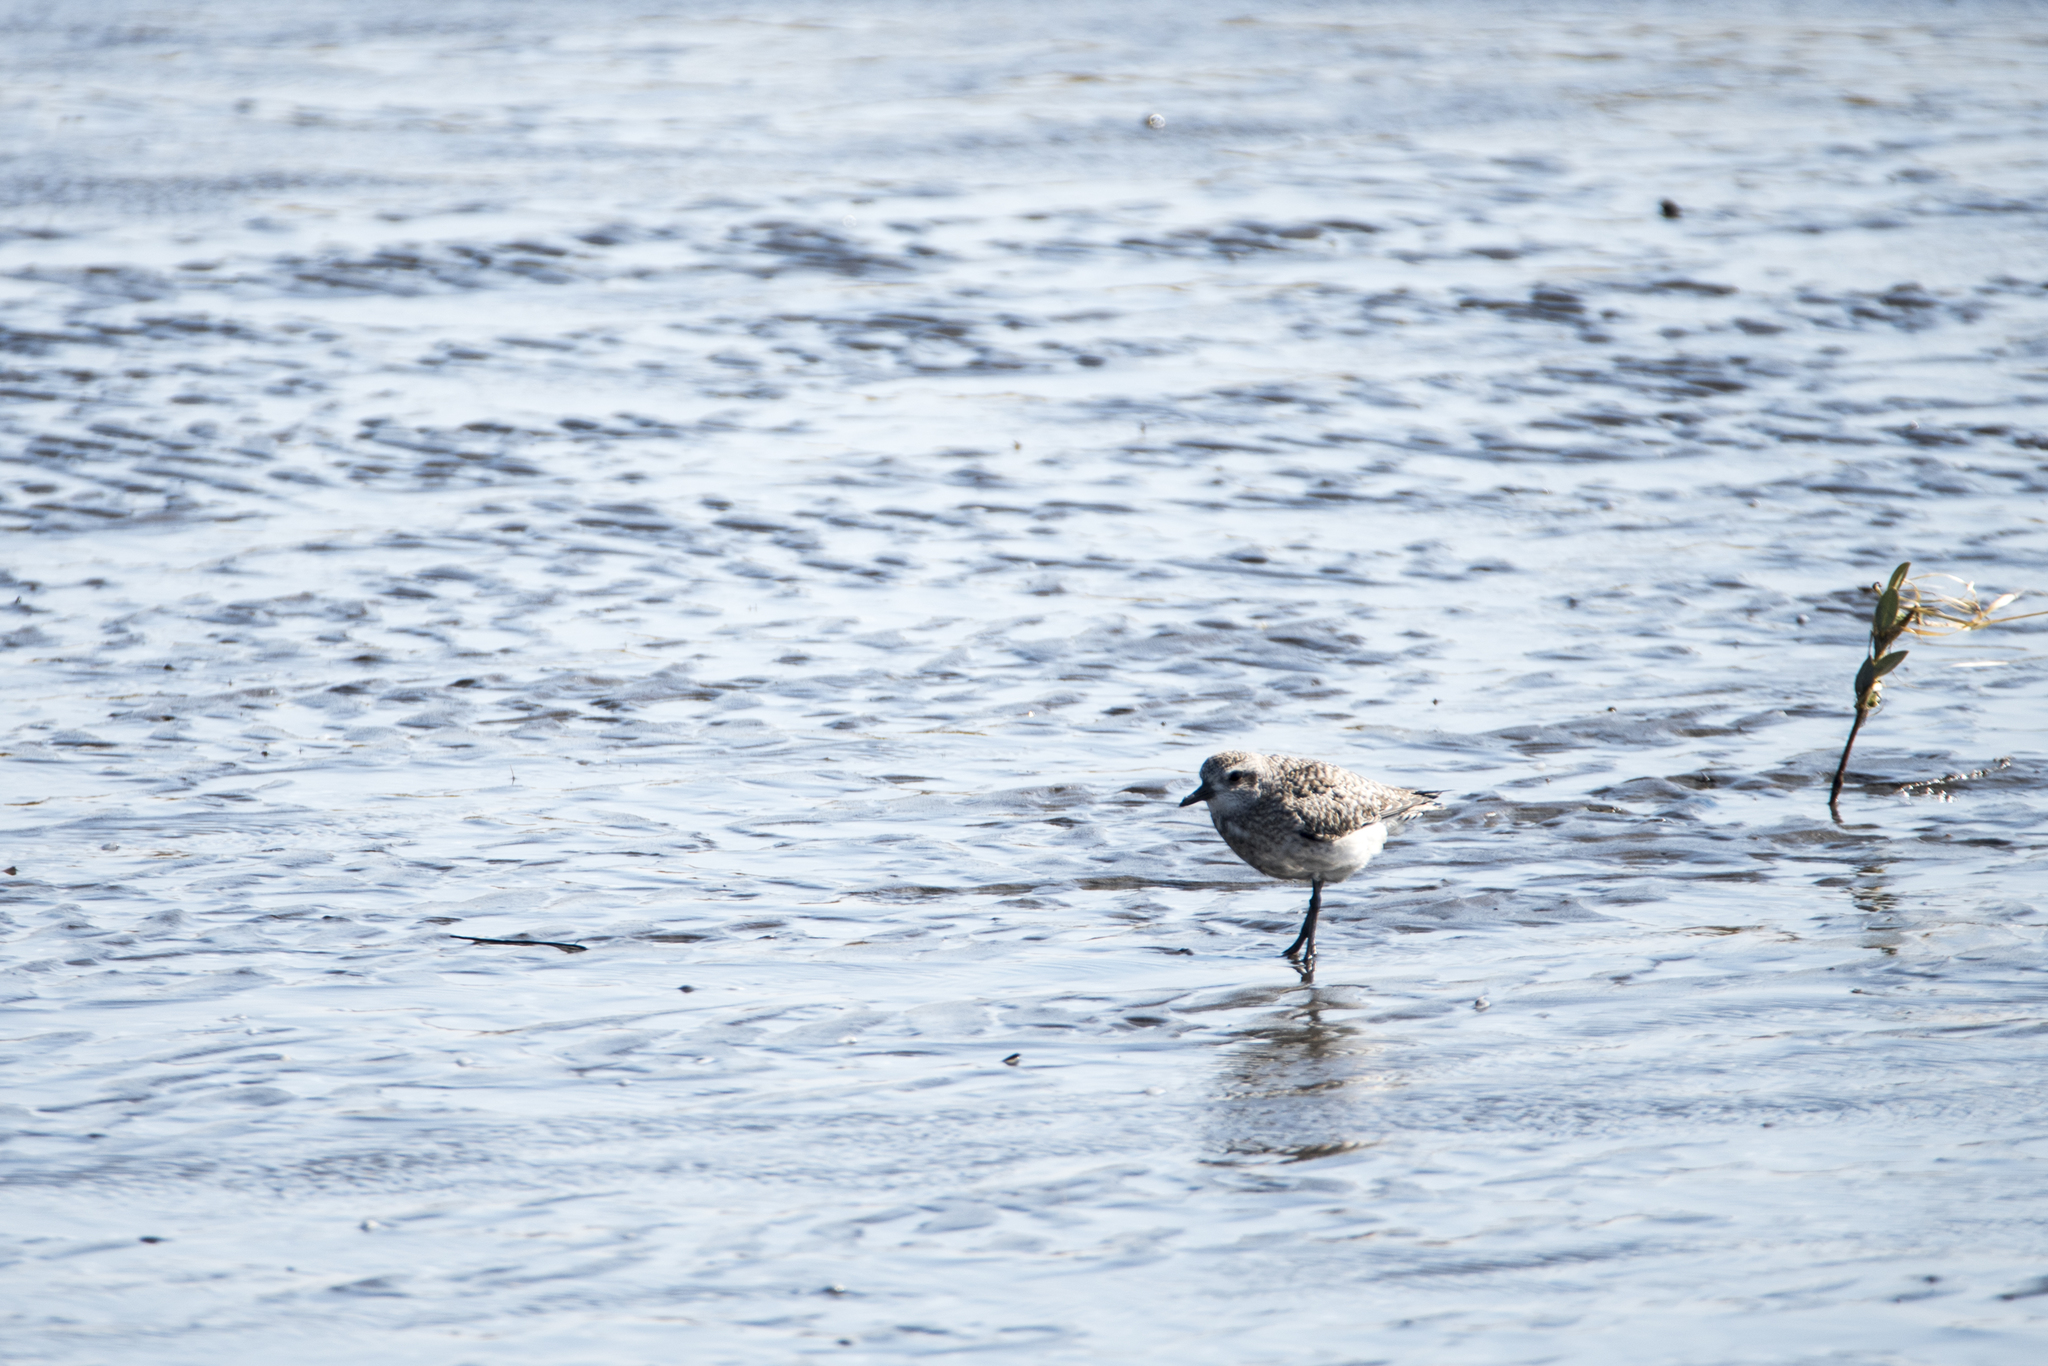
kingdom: Animalia
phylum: Chordata
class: Aves
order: Charadriiformes
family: Charadriidae
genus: Pluvialis
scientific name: Pluvialis squatarola
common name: Grey plover
